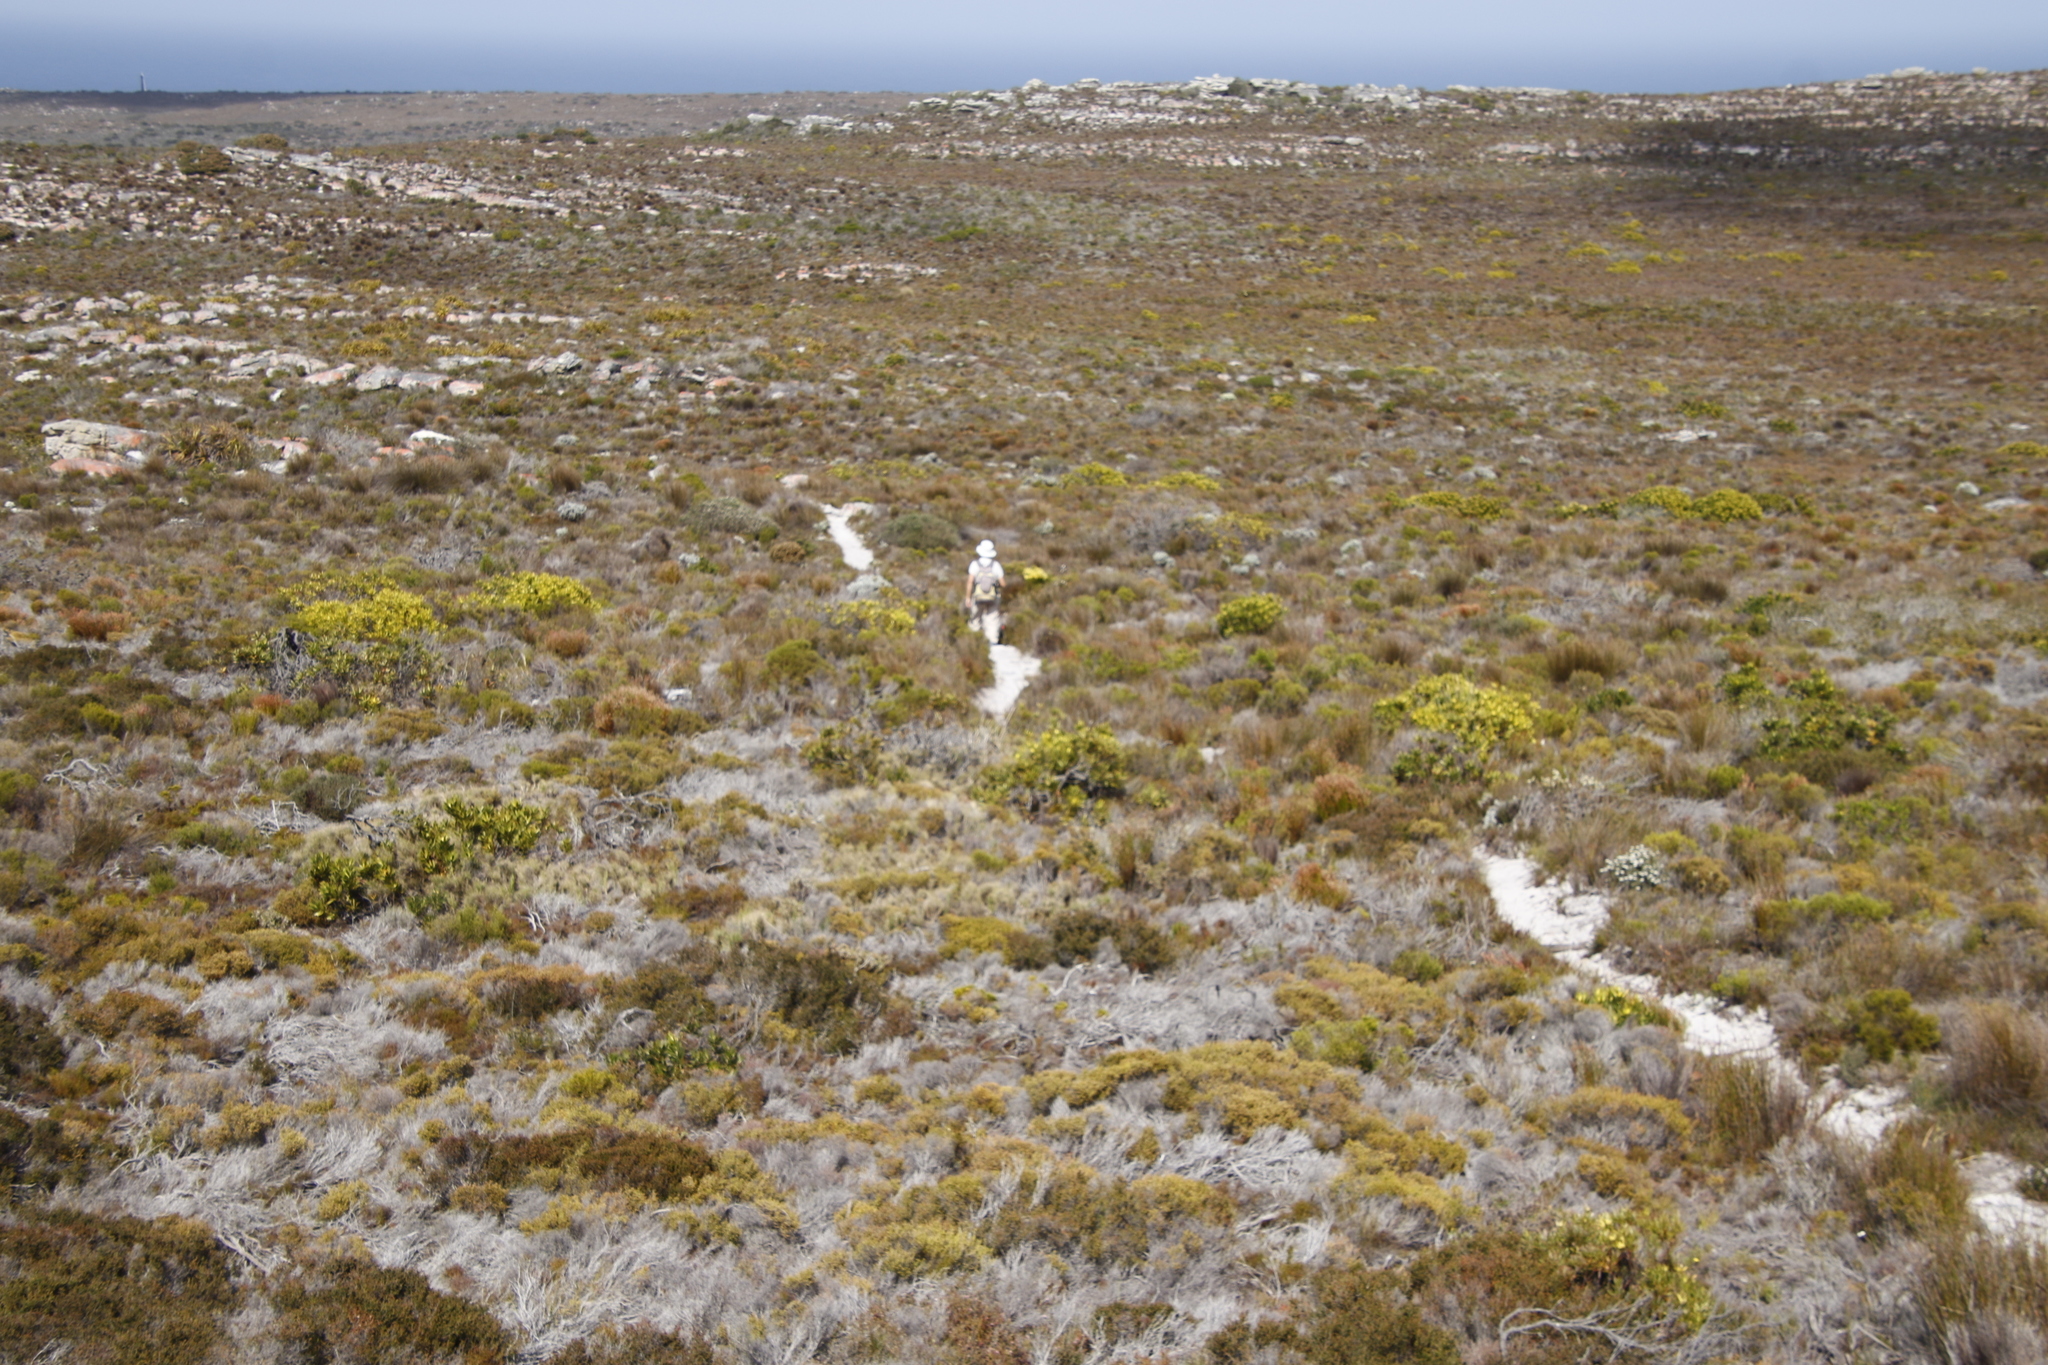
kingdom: Plantae
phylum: Tracheophyta
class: Magnoliopsida
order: Proteales
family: Proteaceae
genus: Leucadendron
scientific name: Leucadendron laureolum
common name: Golden sunshinebush
